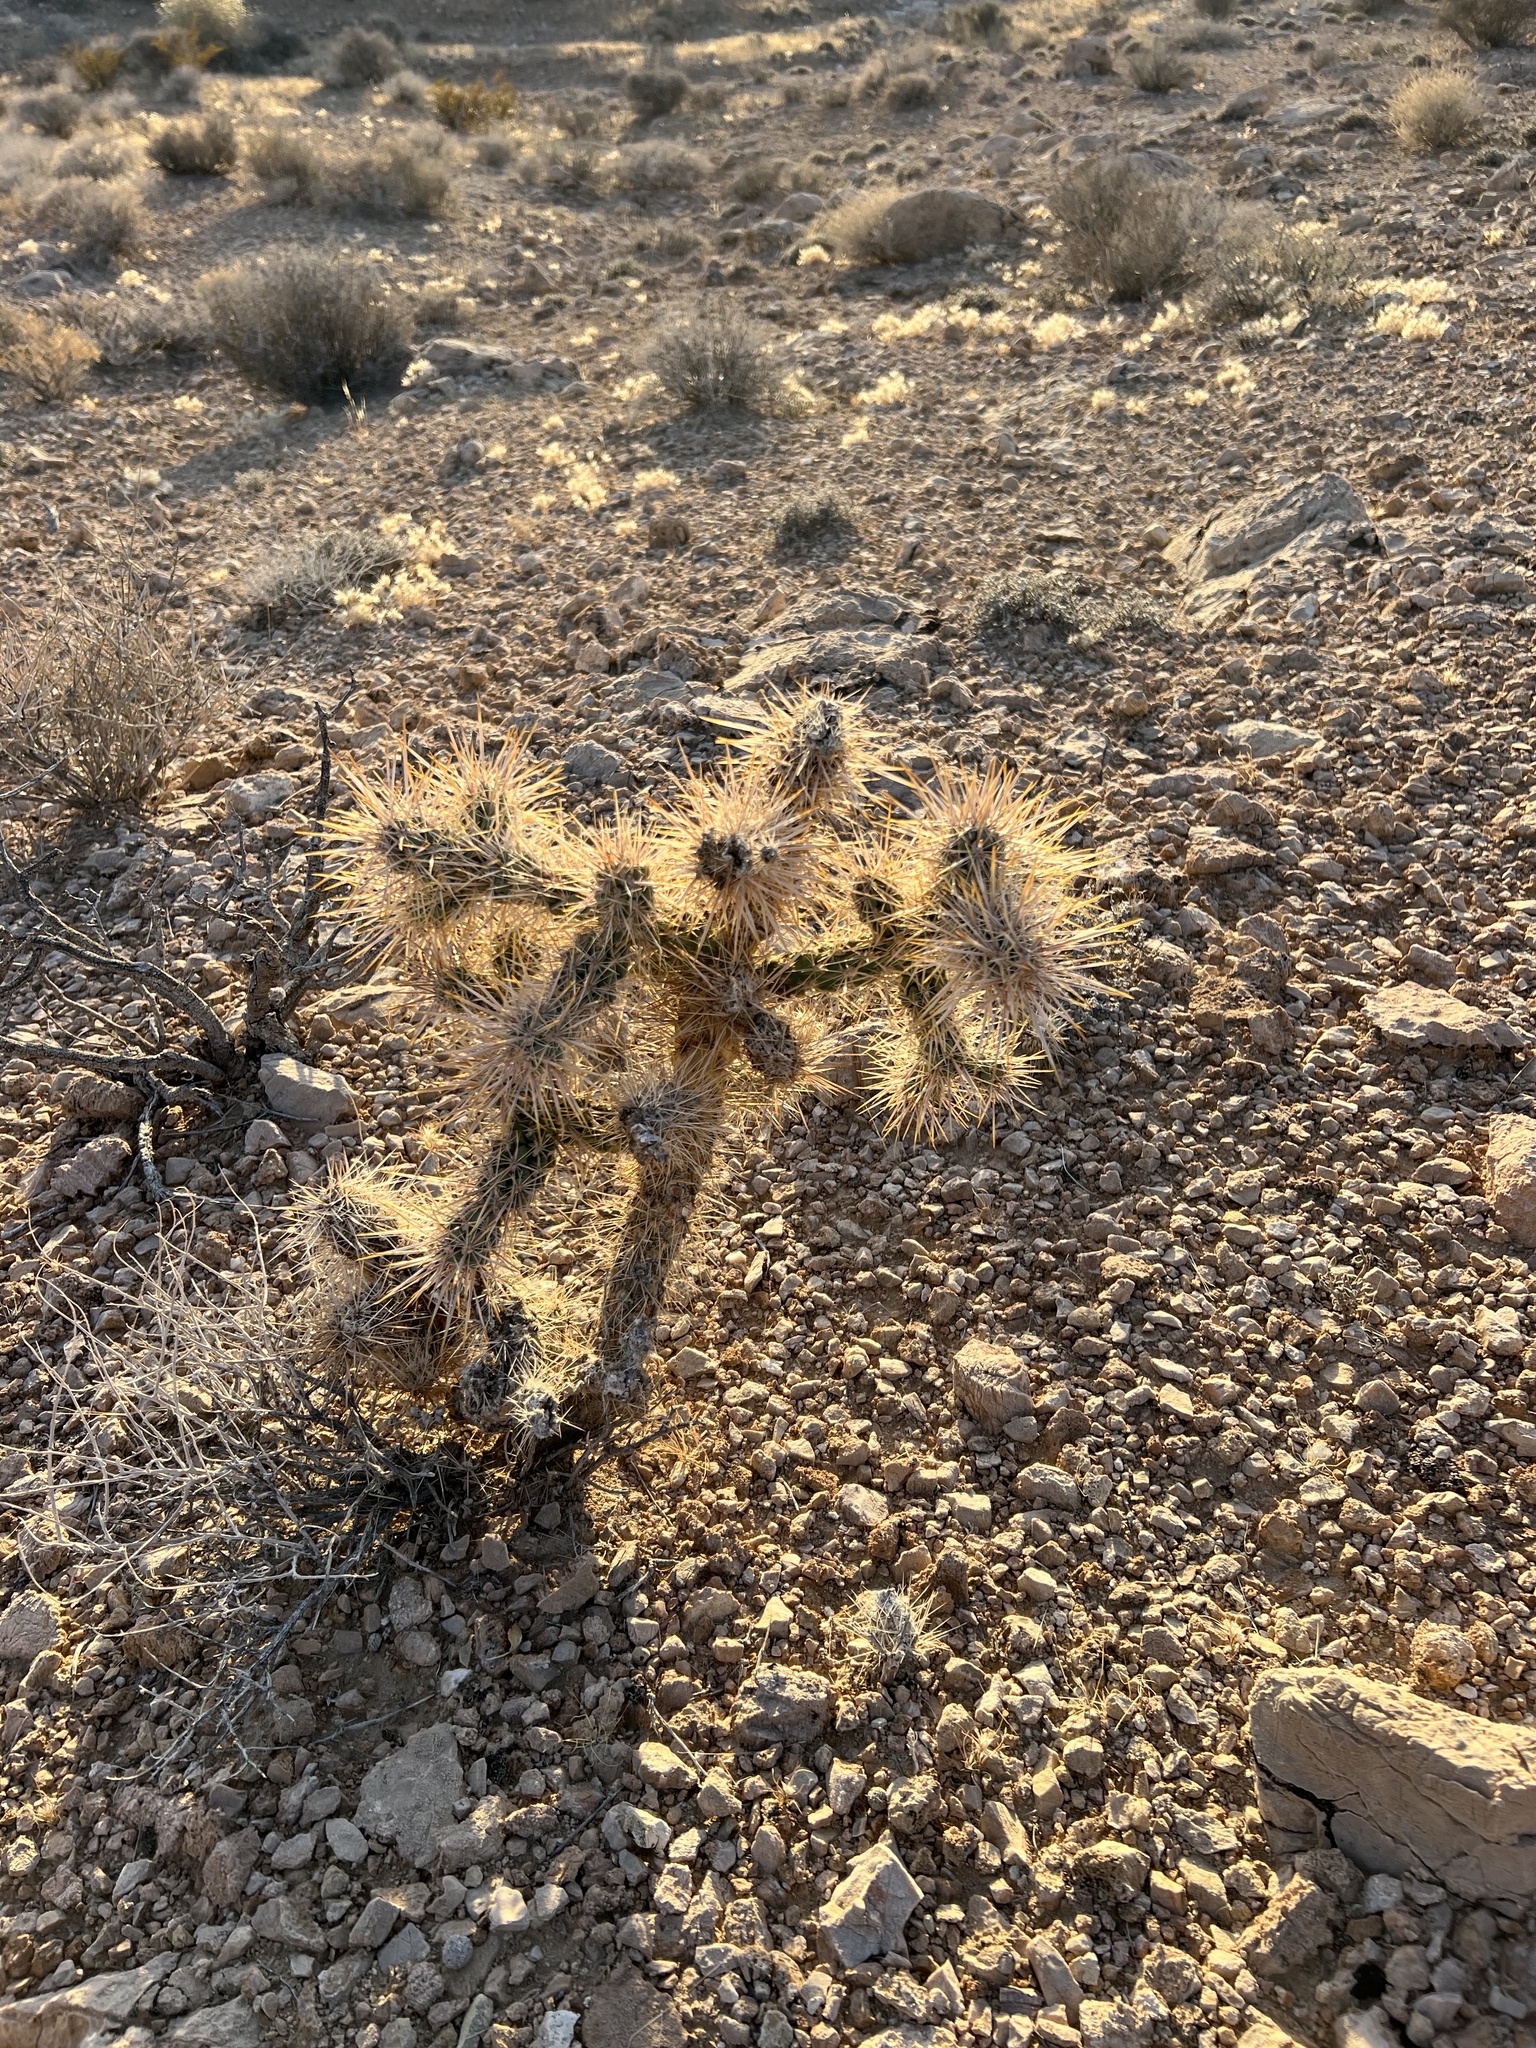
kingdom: Plantae
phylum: Tracheophyta
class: Magnoliopsida
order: Caryophyllales
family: Cactaceae
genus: Cylindropuntia
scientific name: Cylindropuntia echinocarpa
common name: Ground cholla
